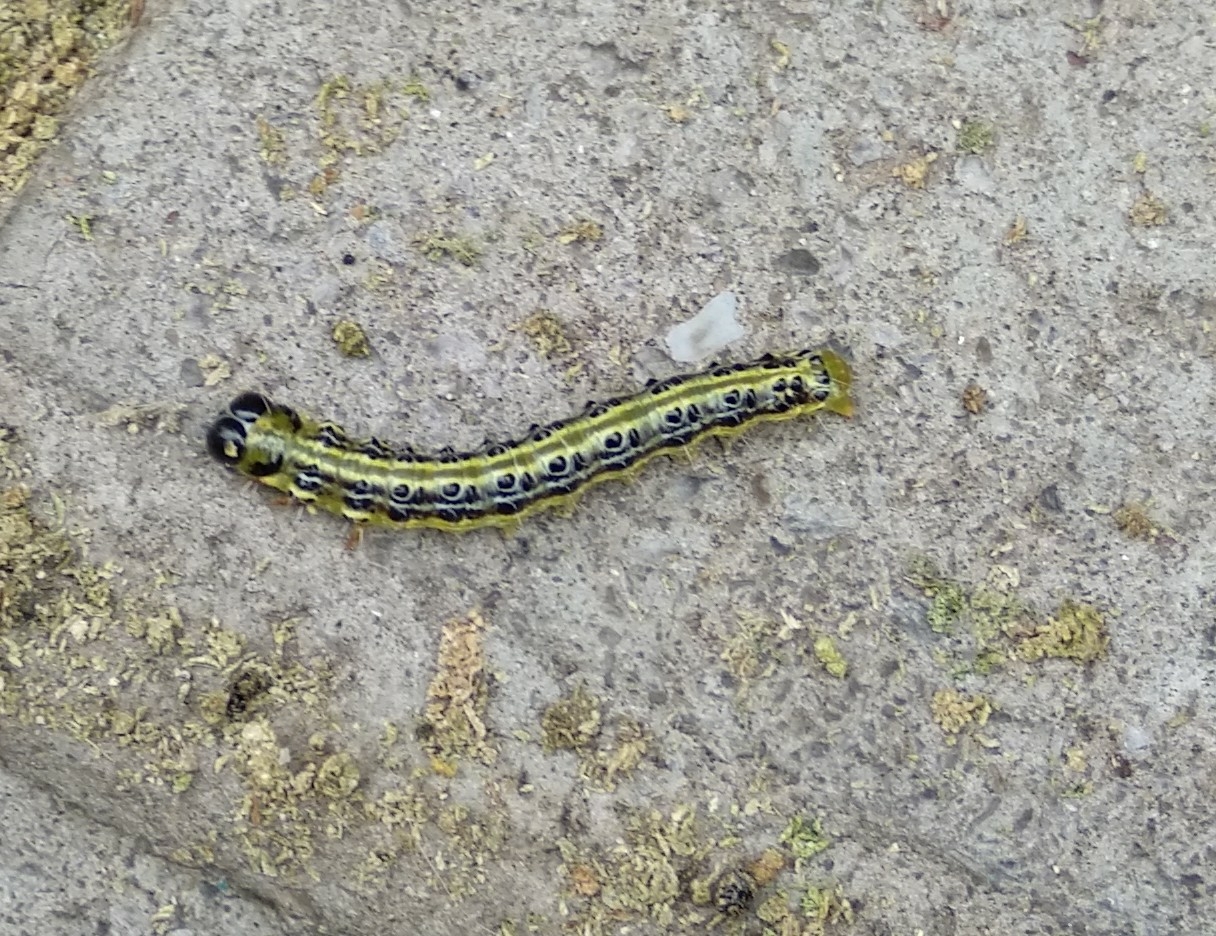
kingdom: Animalia
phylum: Arthropoda
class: Insecta
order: Lepidoptera
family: Crambidae
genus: Cydalima
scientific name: Cydalima perspectalis
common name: Box tree moth
